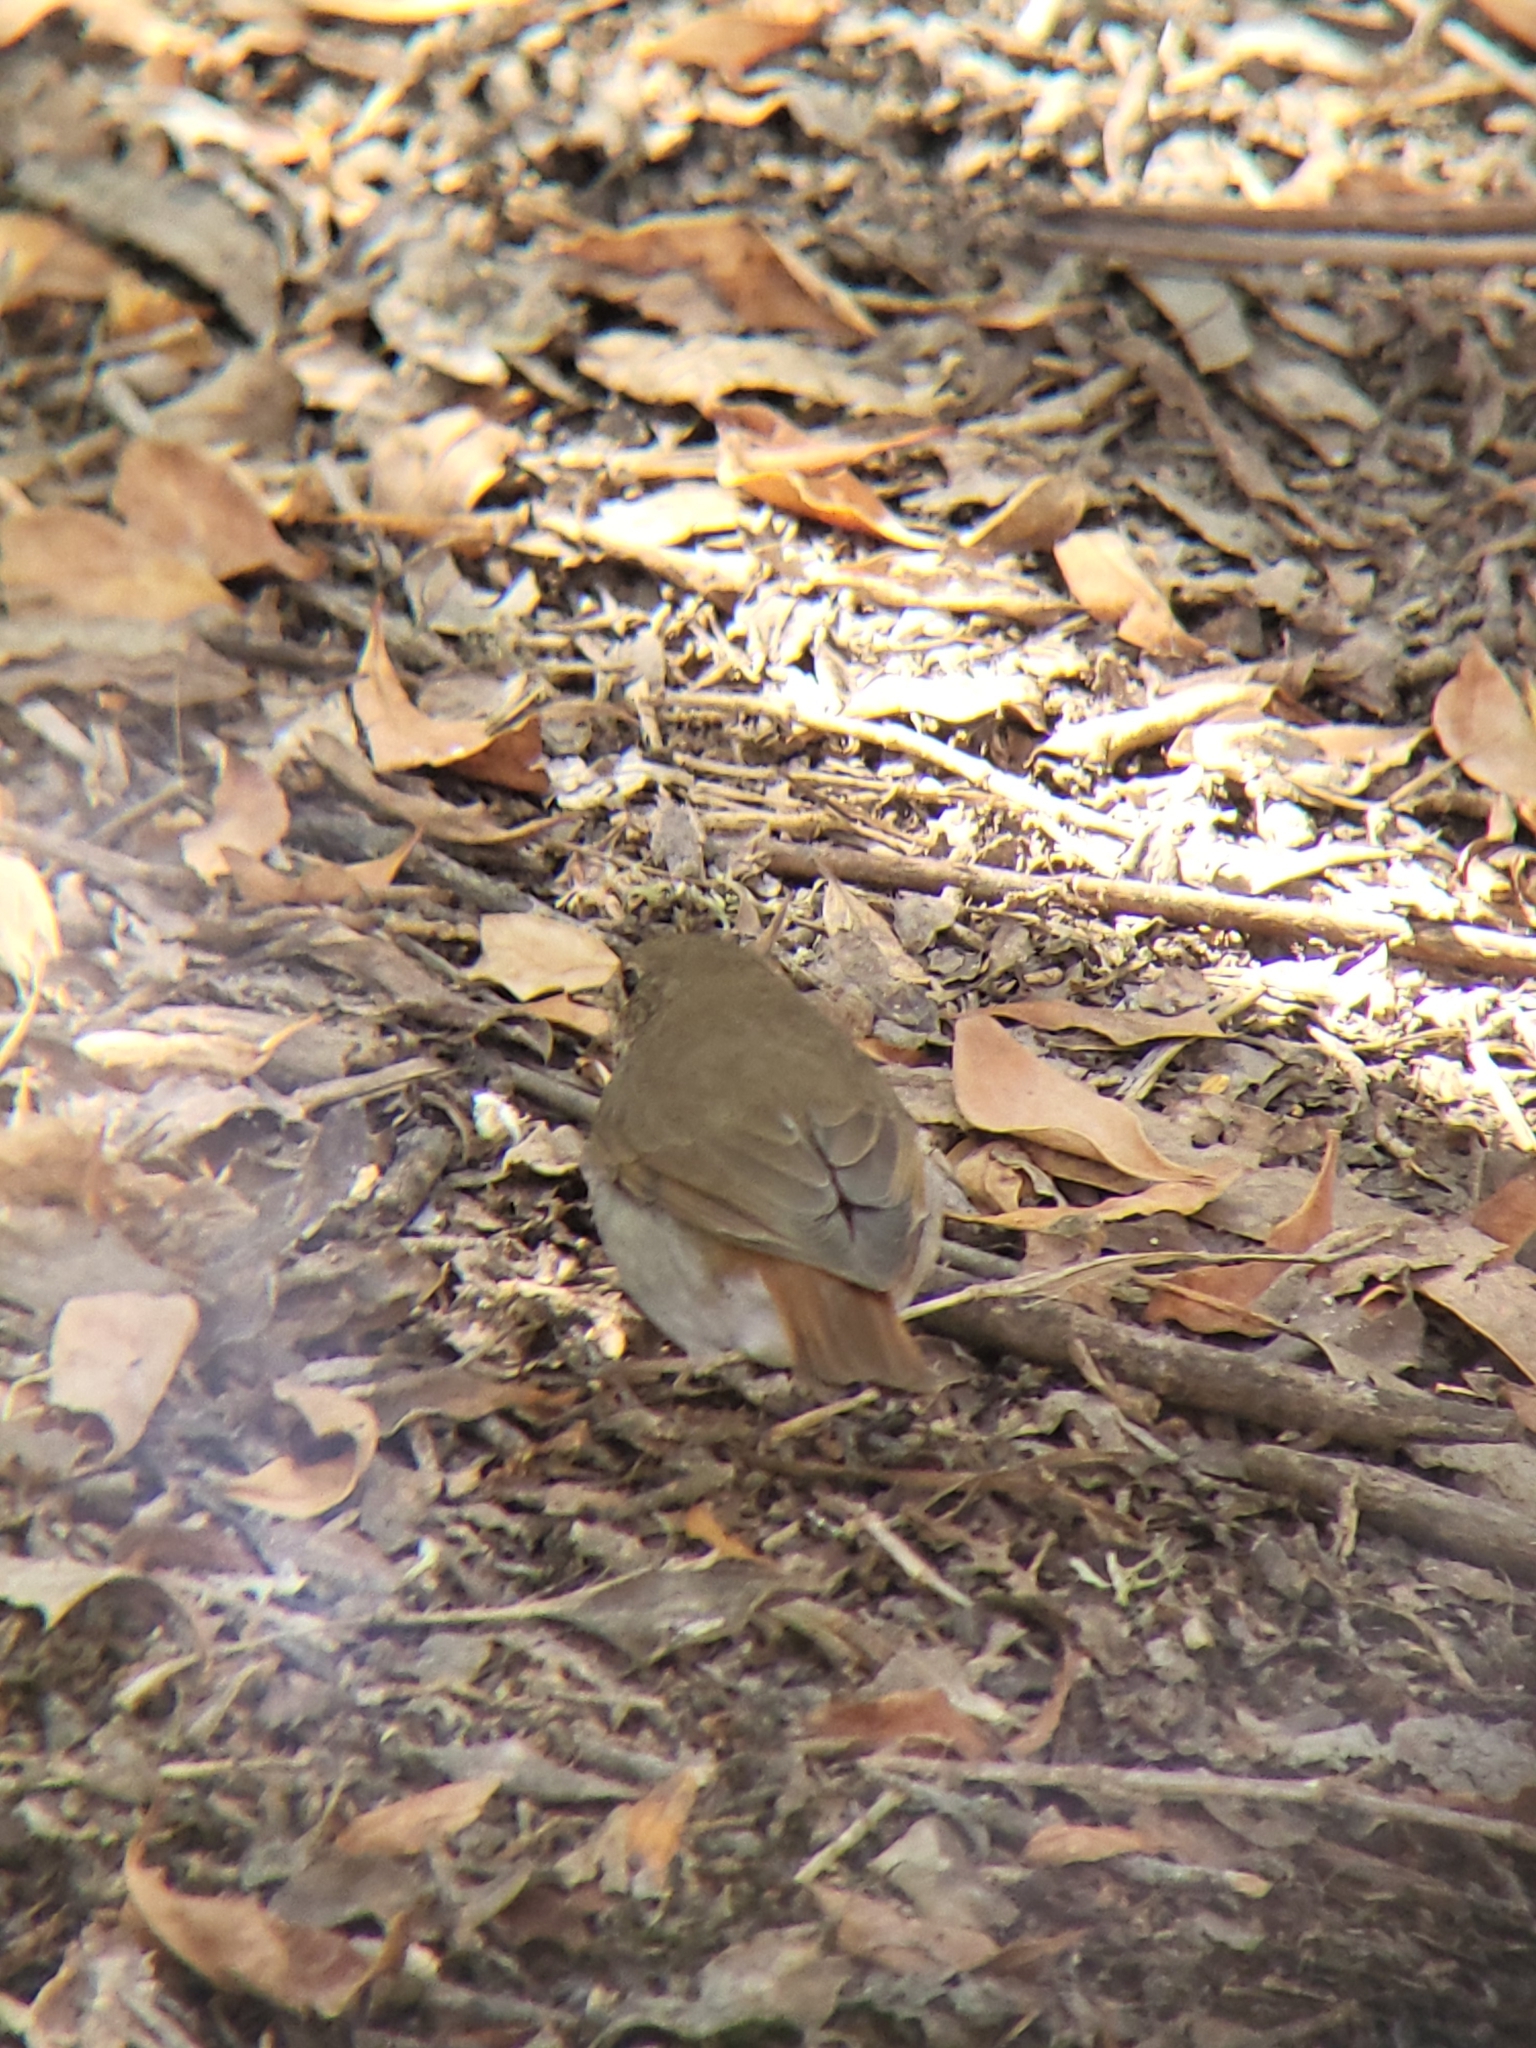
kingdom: Animalia
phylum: Chordata
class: Aves
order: Passeriformes
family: Turdidae
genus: Catharus
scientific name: Catharus guttatus
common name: Hermit thrush
